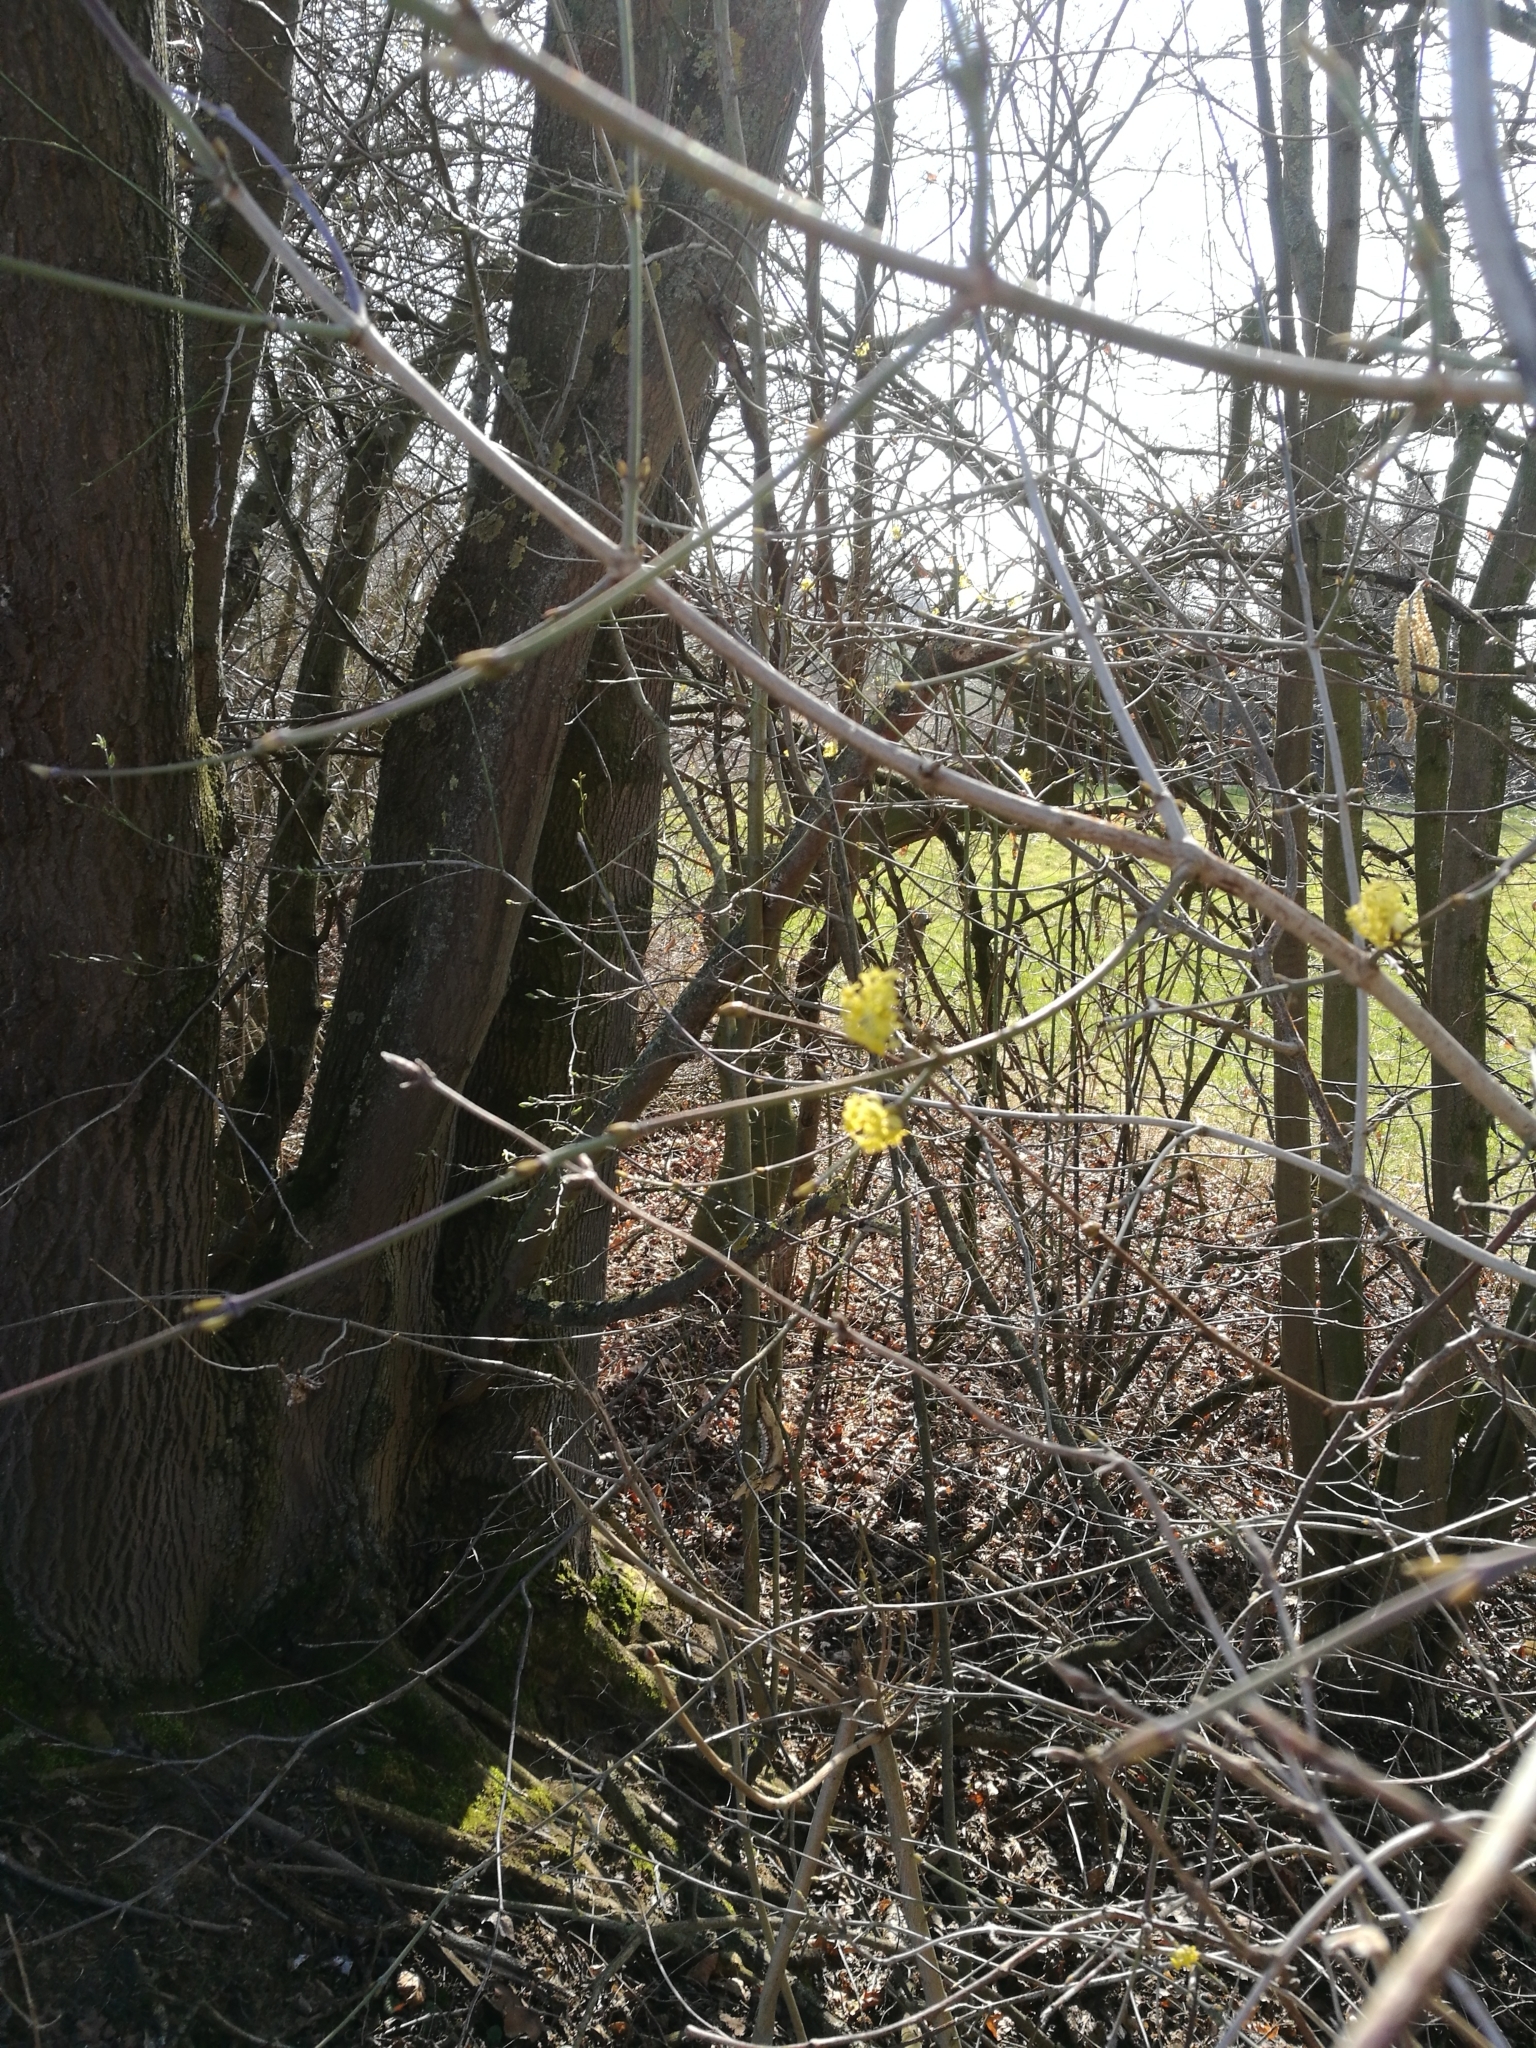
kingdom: Plantae
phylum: Tracheophyta
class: Magnoliopsida
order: Cornales
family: Cornaceae
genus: Cornus
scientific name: Cornus mas
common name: Cornelian-cherry
